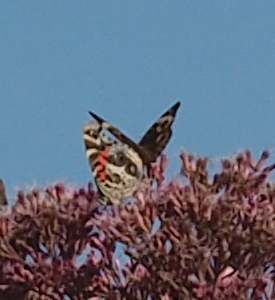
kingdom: Animalia
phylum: Arthropoda
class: Insecta
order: Lepidoptera
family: Nymphalidae
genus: Vanessa
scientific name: Vanessa virginiensis
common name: American lady
